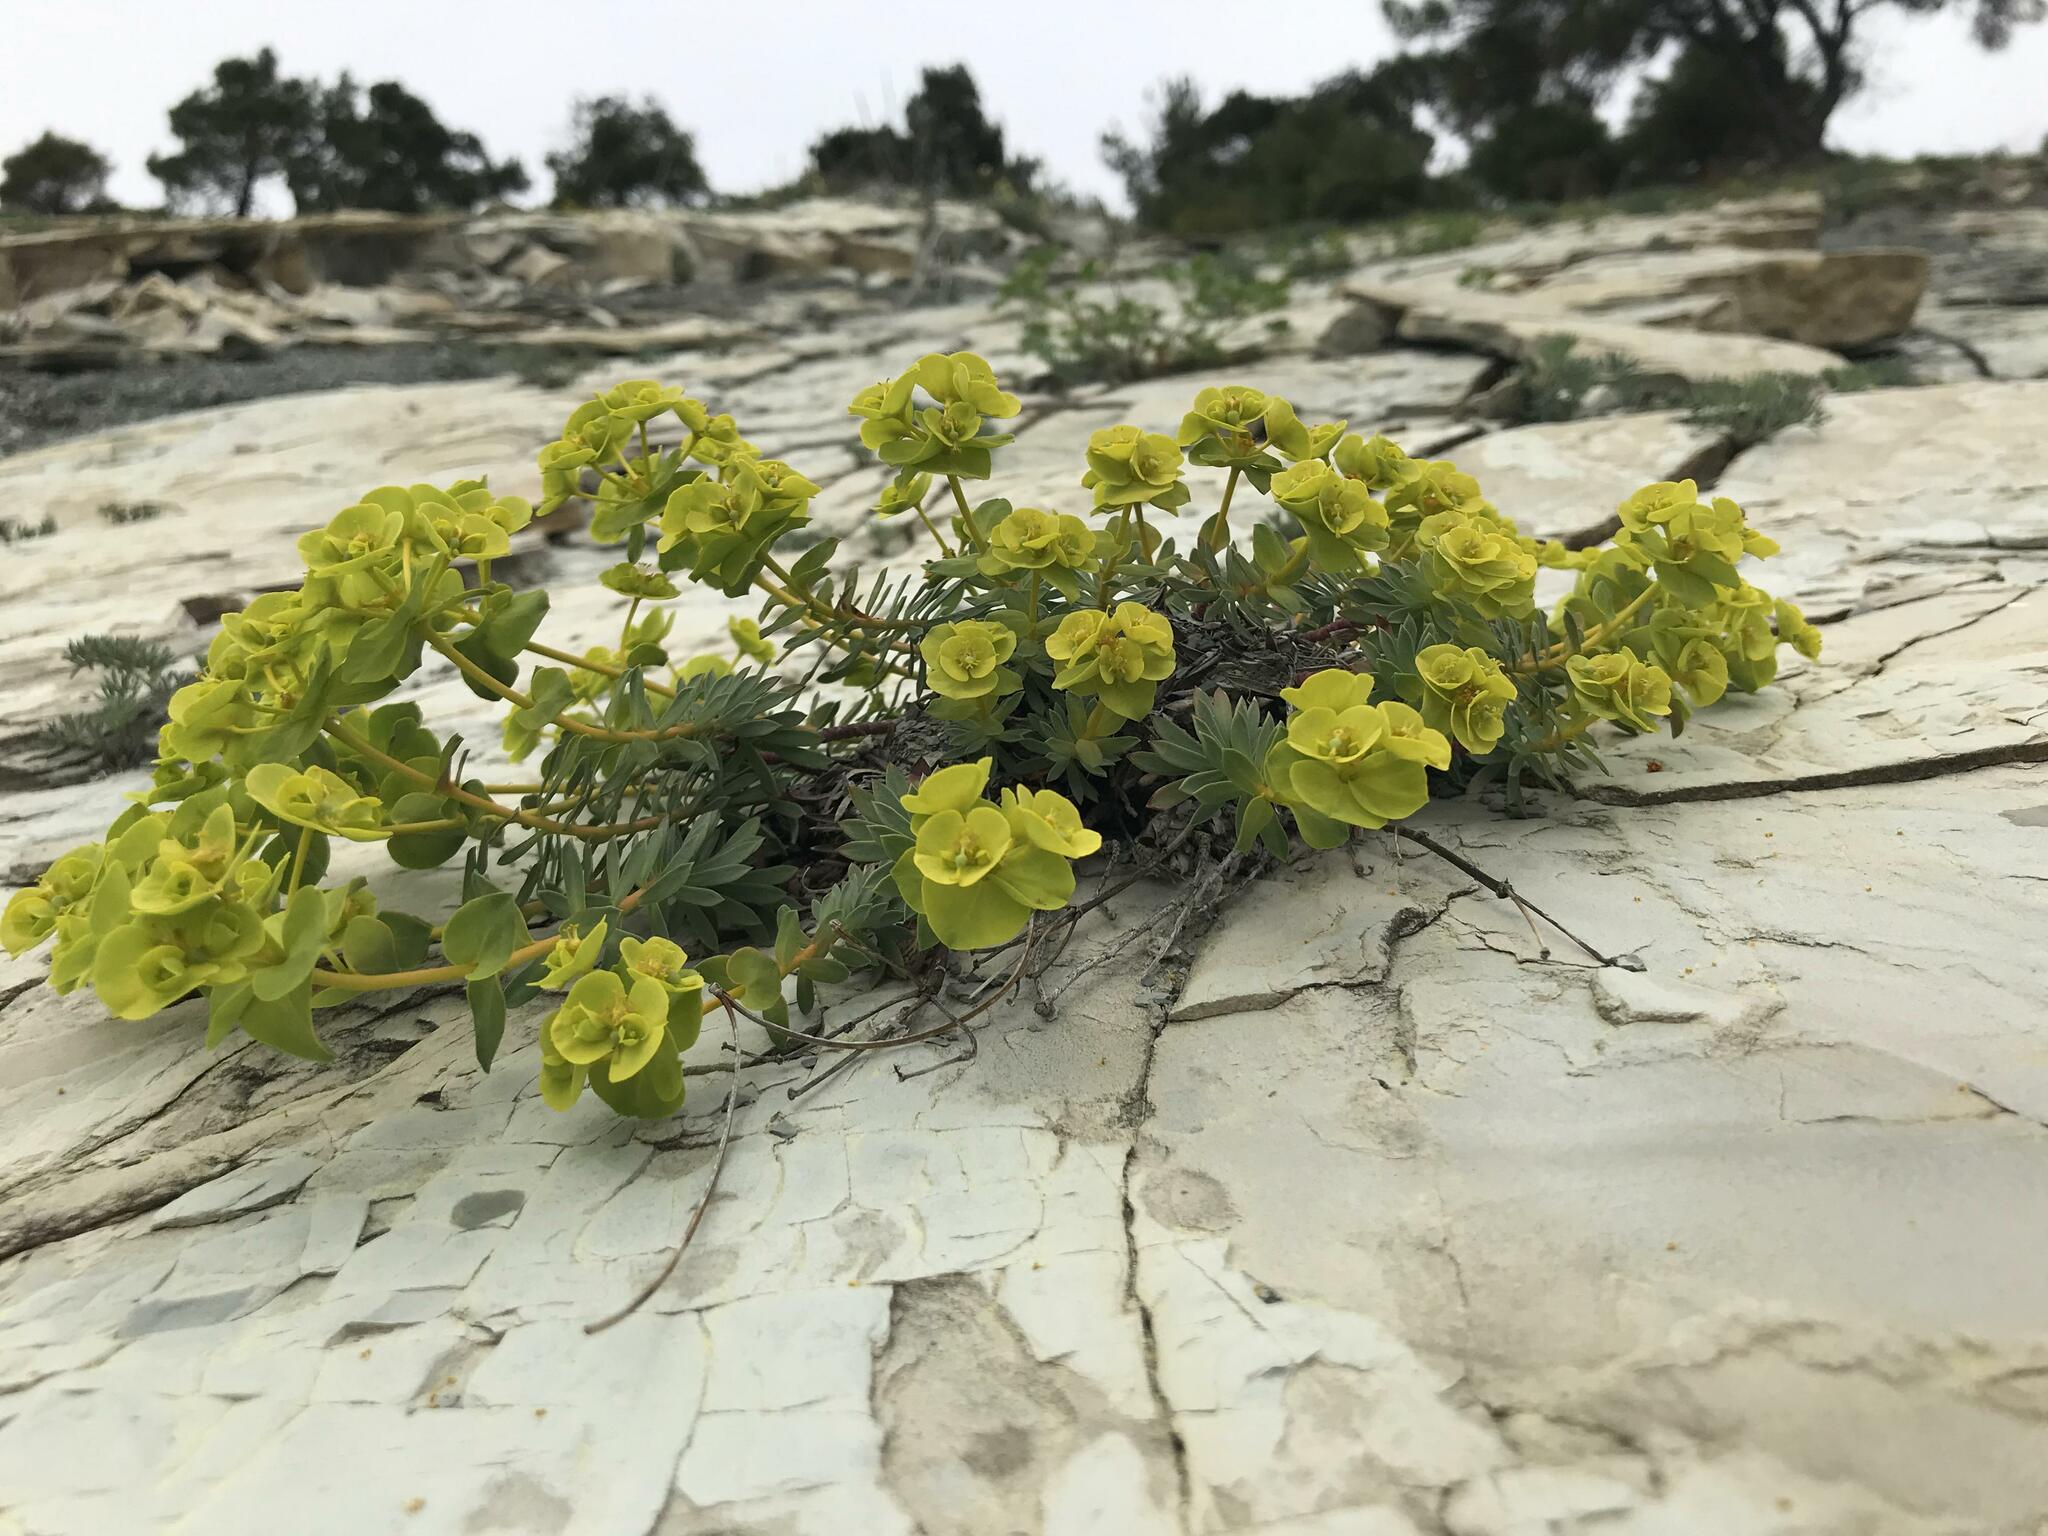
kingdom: Plantae
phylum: Tracheophyta
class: Magnoliopsida
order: Malpighiales
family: Euphorbiaceae
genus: Euphorbia
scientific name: Euphorbia petrophila
